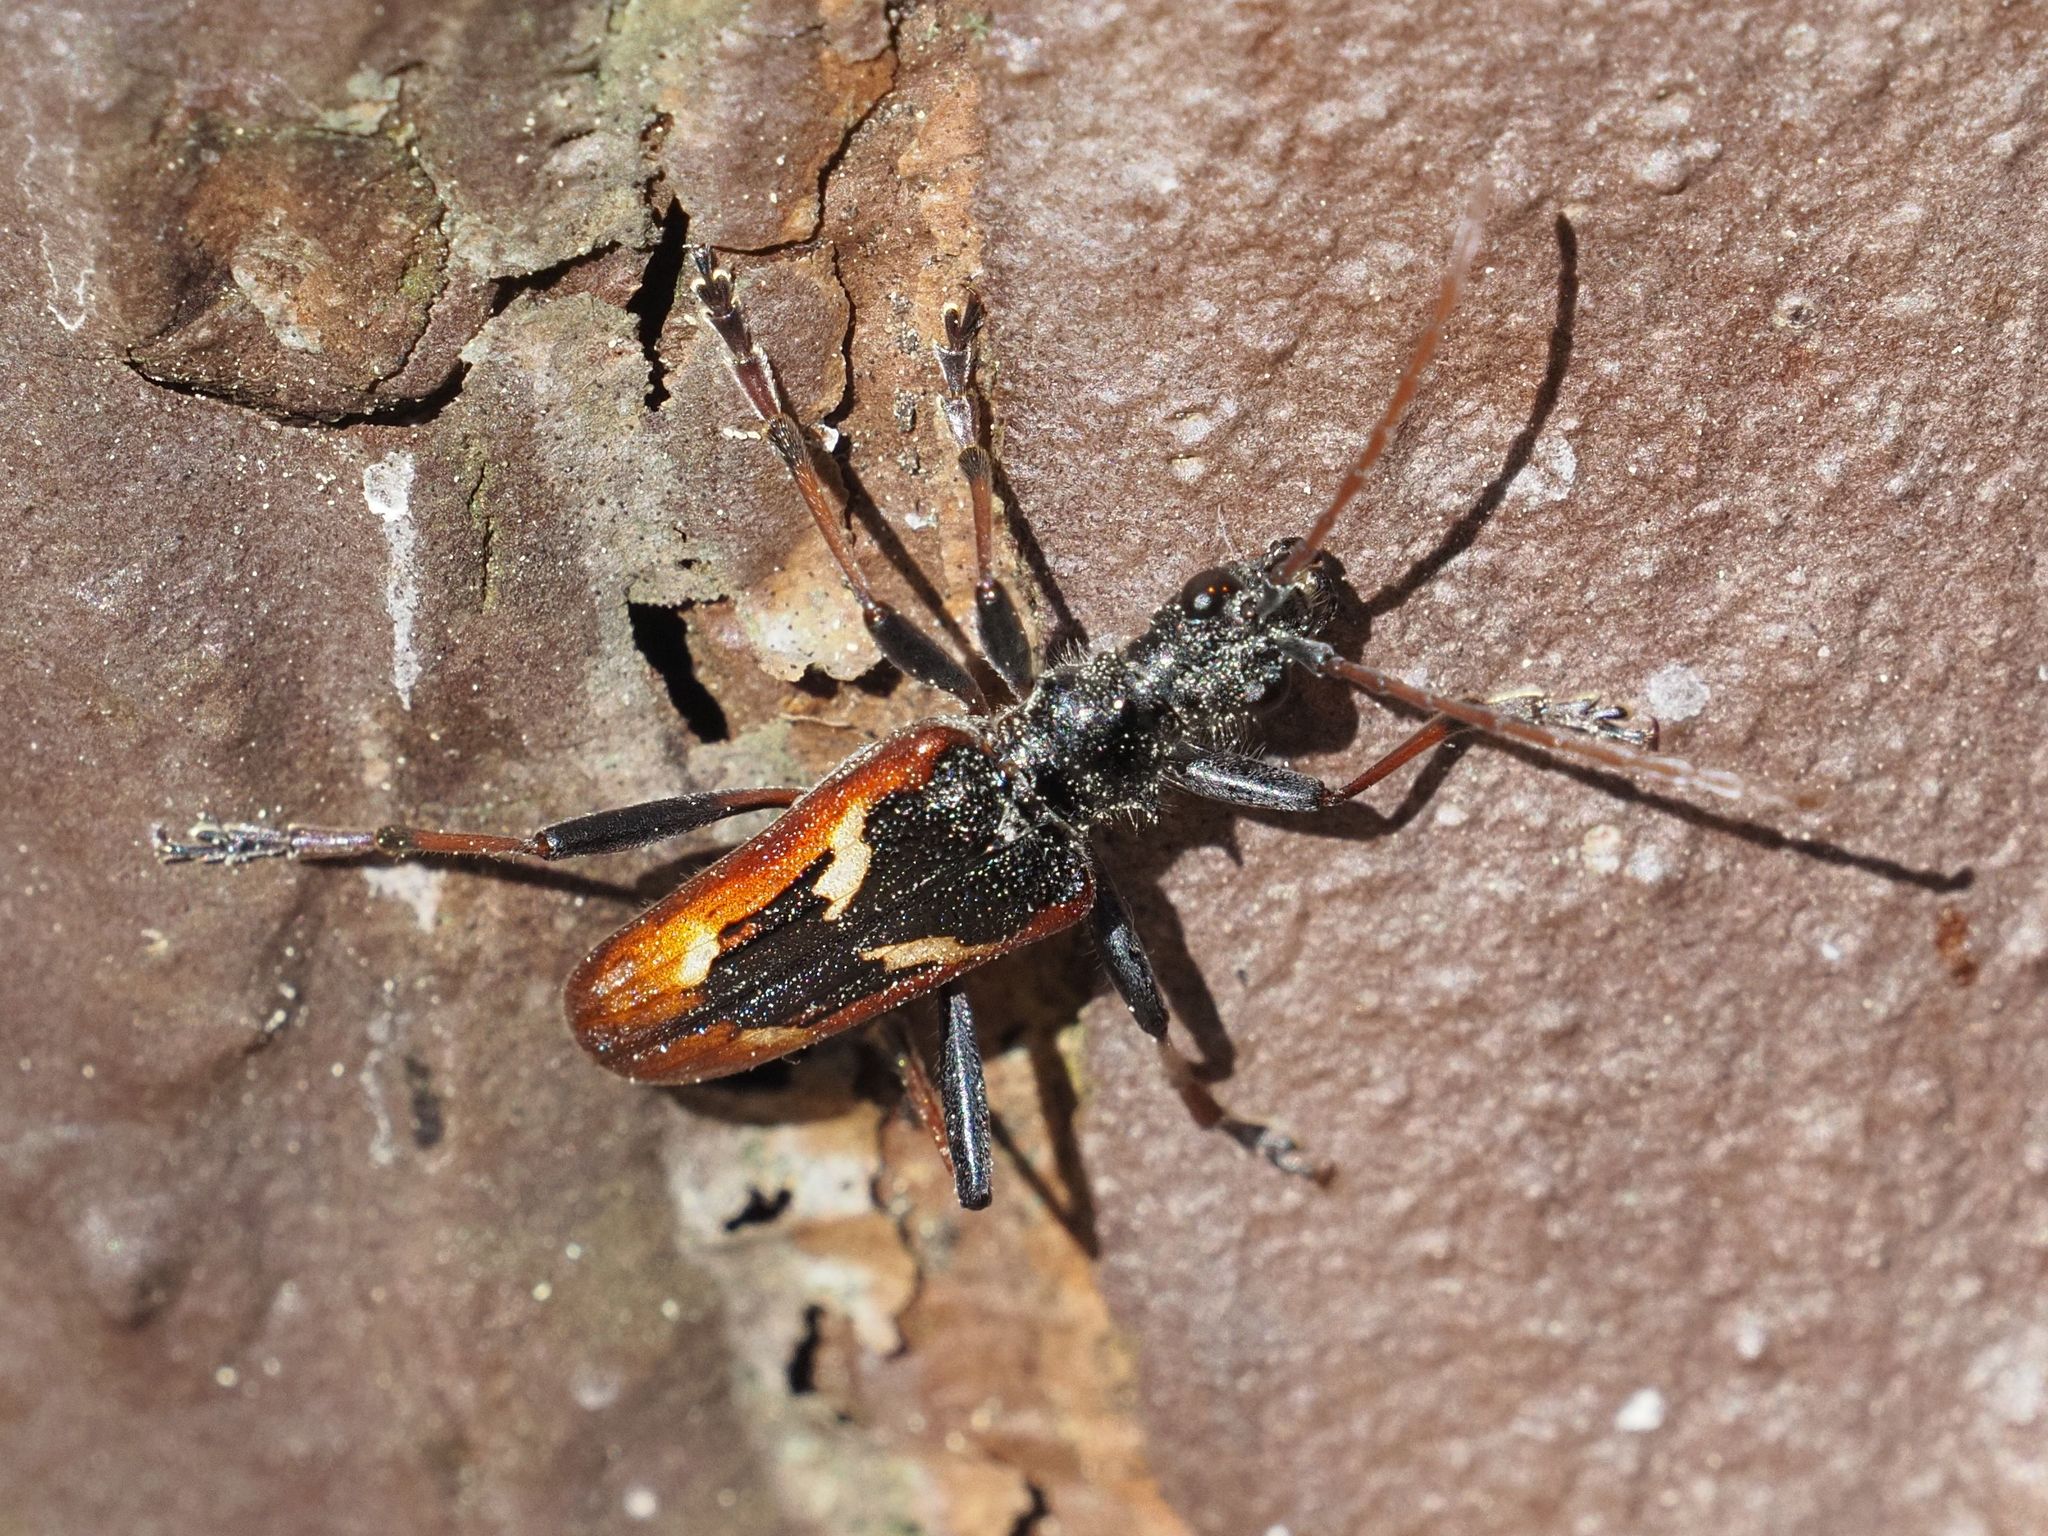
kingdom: Animalia
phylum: Arthropoda
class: Insecta
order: Coleoptera
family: Cerambycidae
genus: Rhagium
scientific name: Rhagium bifasciatum
